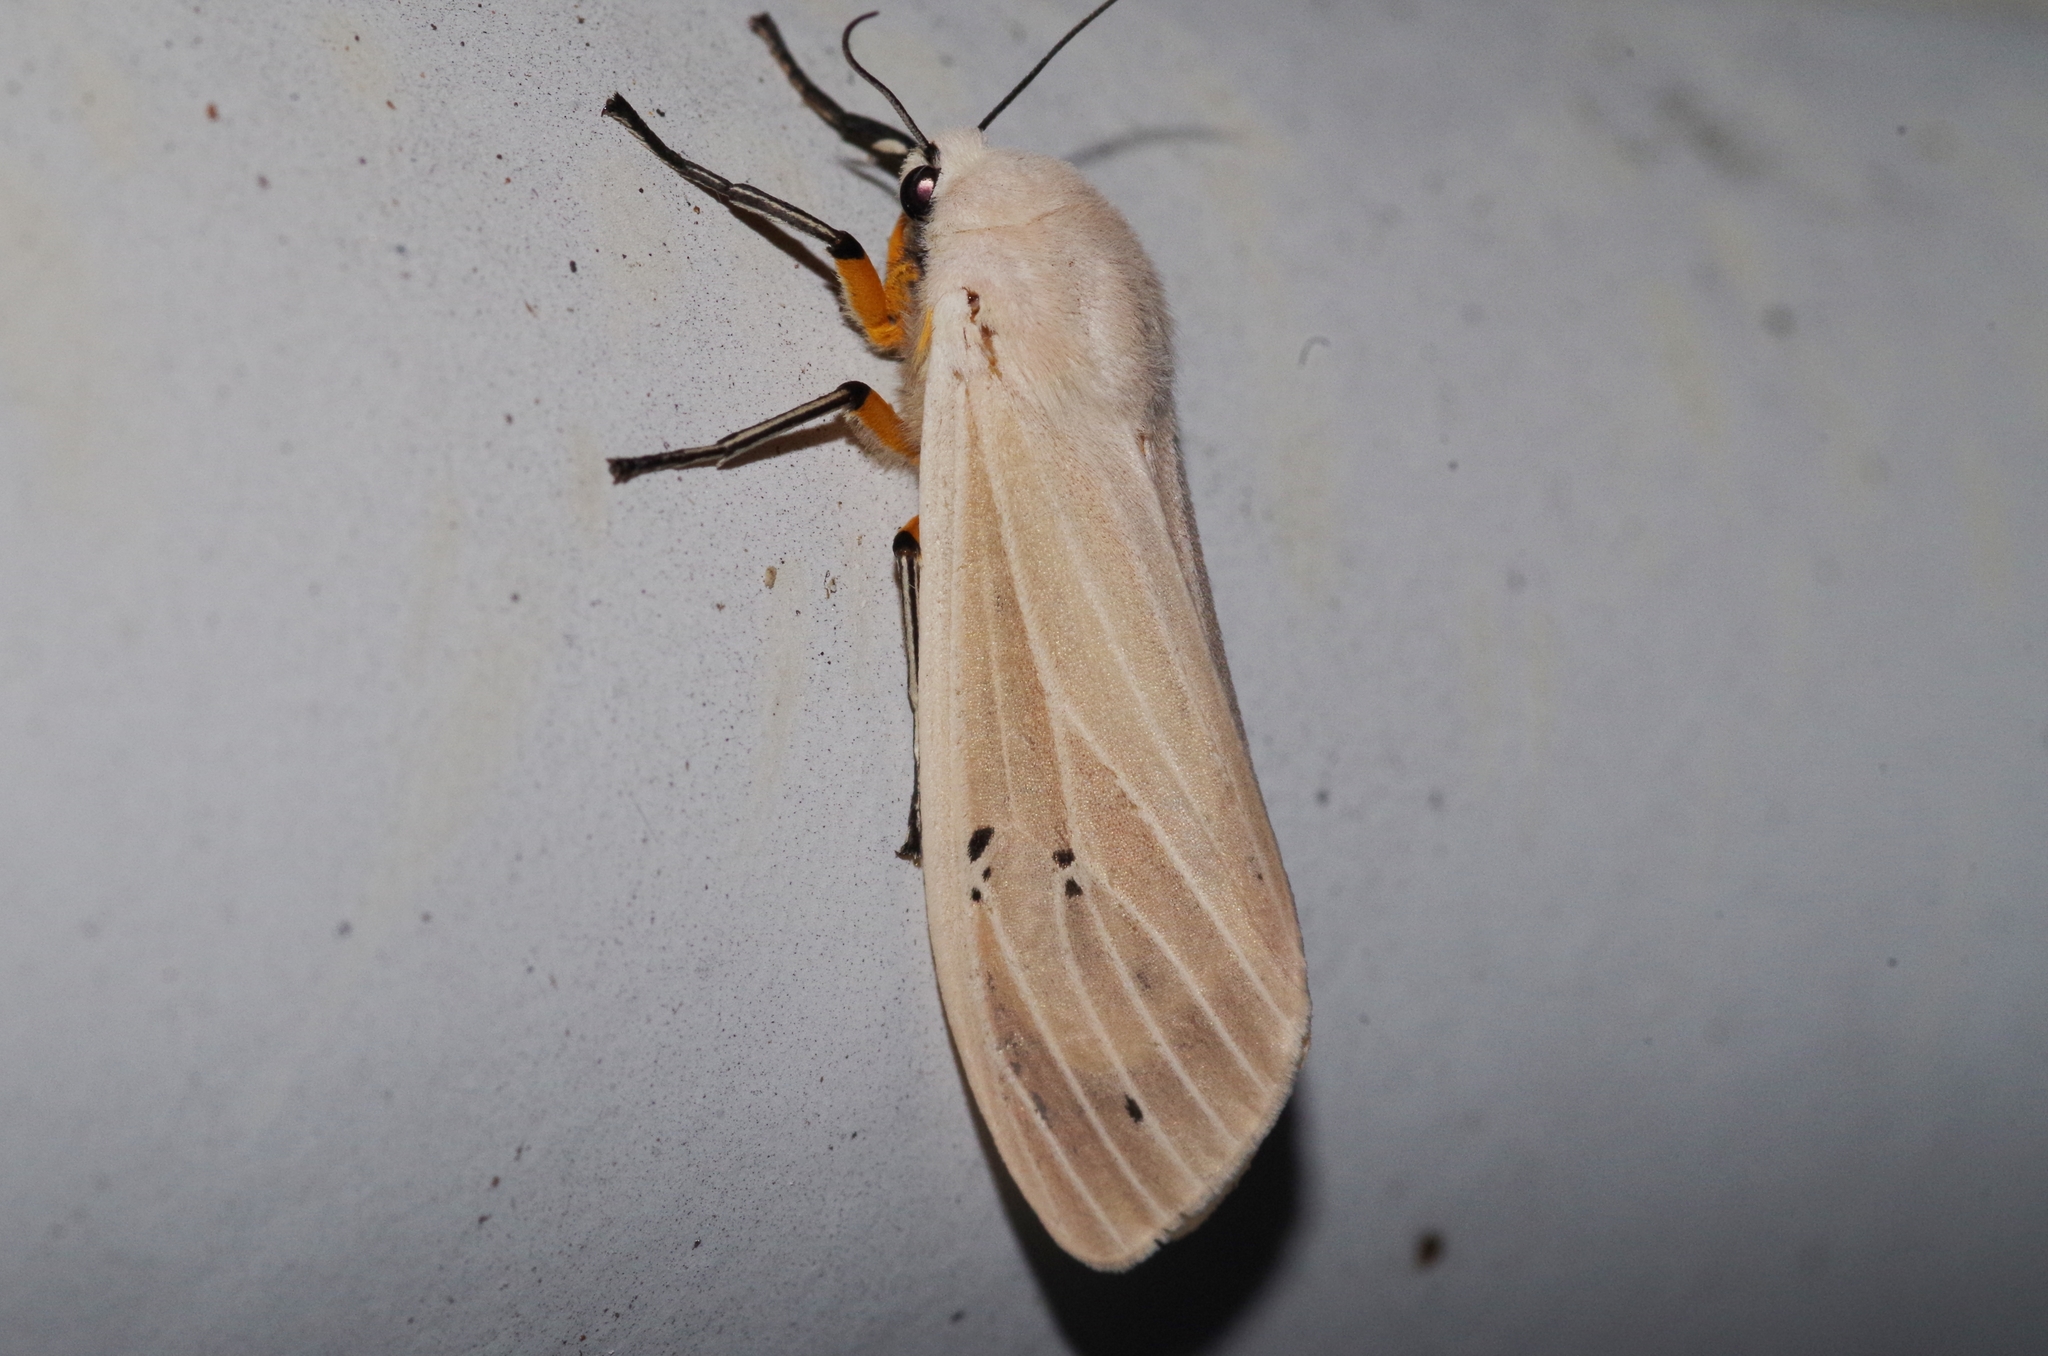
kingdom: Animalia
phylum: Arthropoda
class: Insecta
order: Lepidoptera
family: Erebidae
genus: Creatonotos
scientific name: Creatonotos transiens
